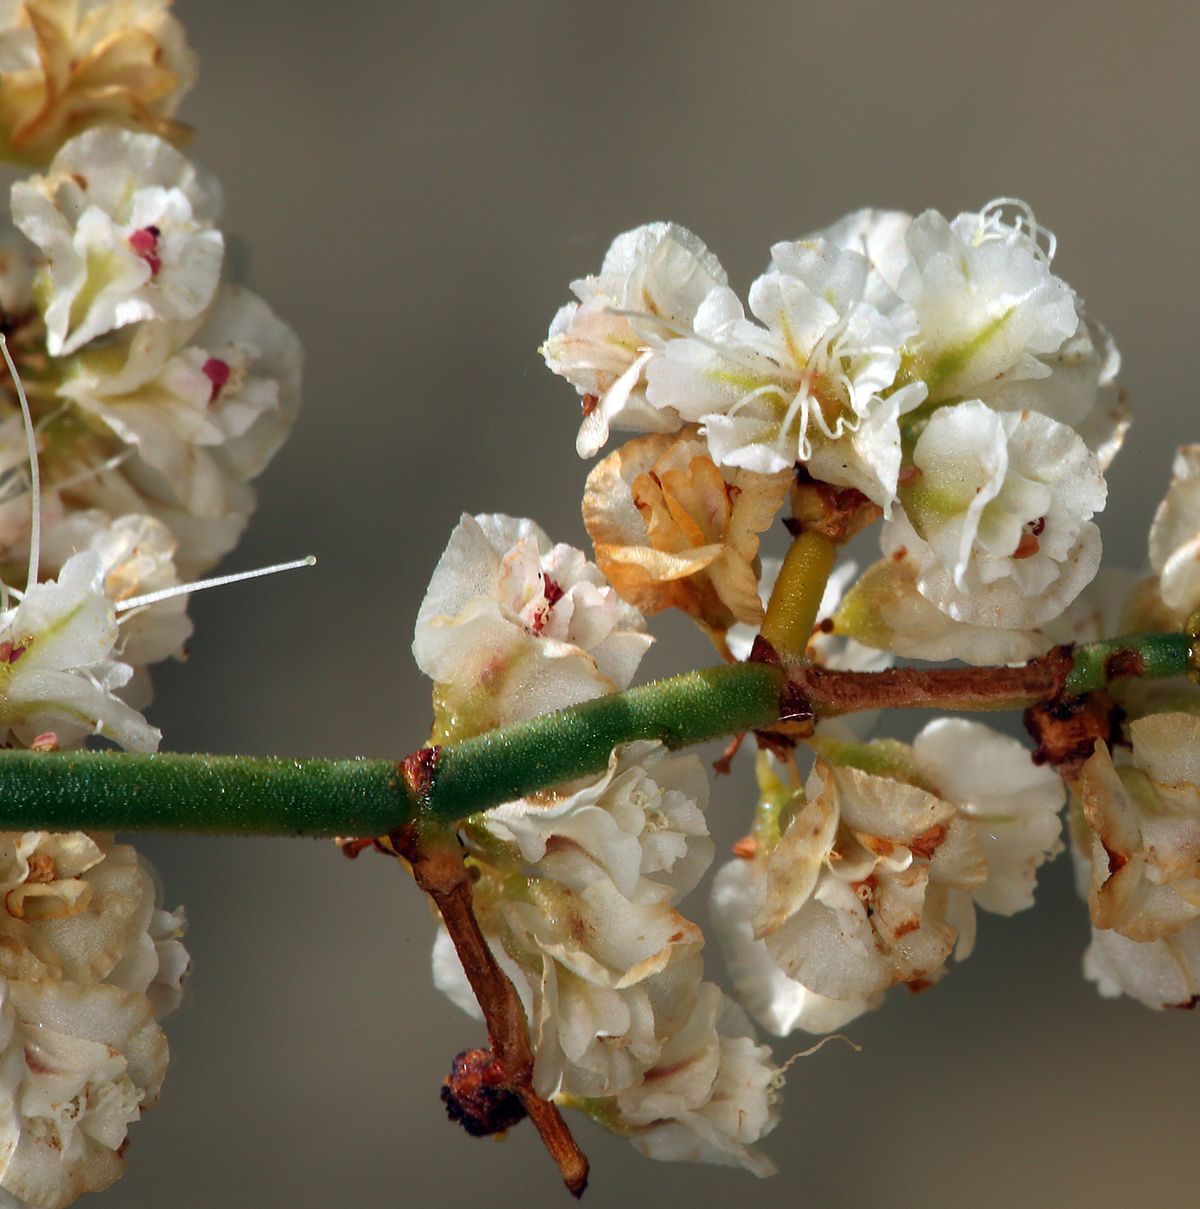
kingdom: Plantae
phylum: Tracheophyta
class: Magnoliopsida
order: Caryophyllales
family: Polygonaceae
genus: Eriogonum
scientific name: Eriogonum heermannii
